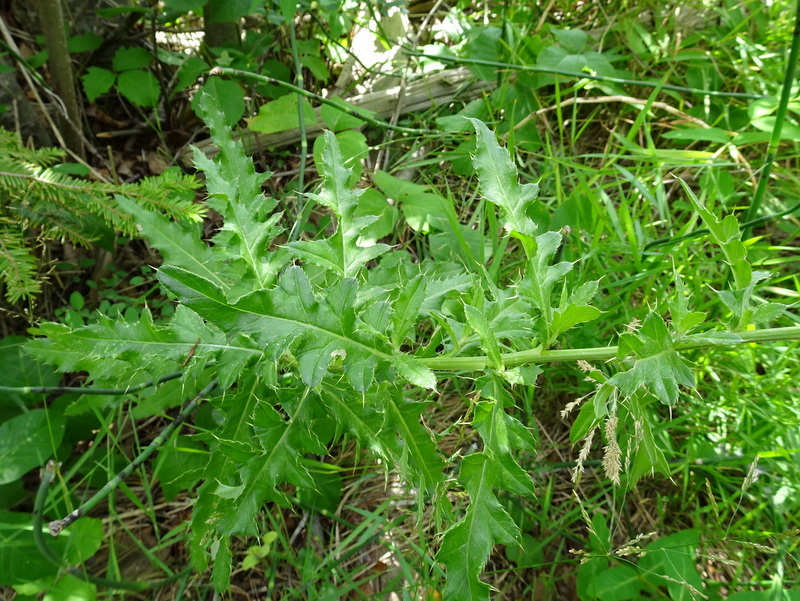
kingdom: Plantae
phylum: Tracheophyta
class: Magnoliopsida
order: Asterales
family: Asteraceae
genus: Cirsium
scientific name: Cirsium arvense
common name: Creeping thistle
